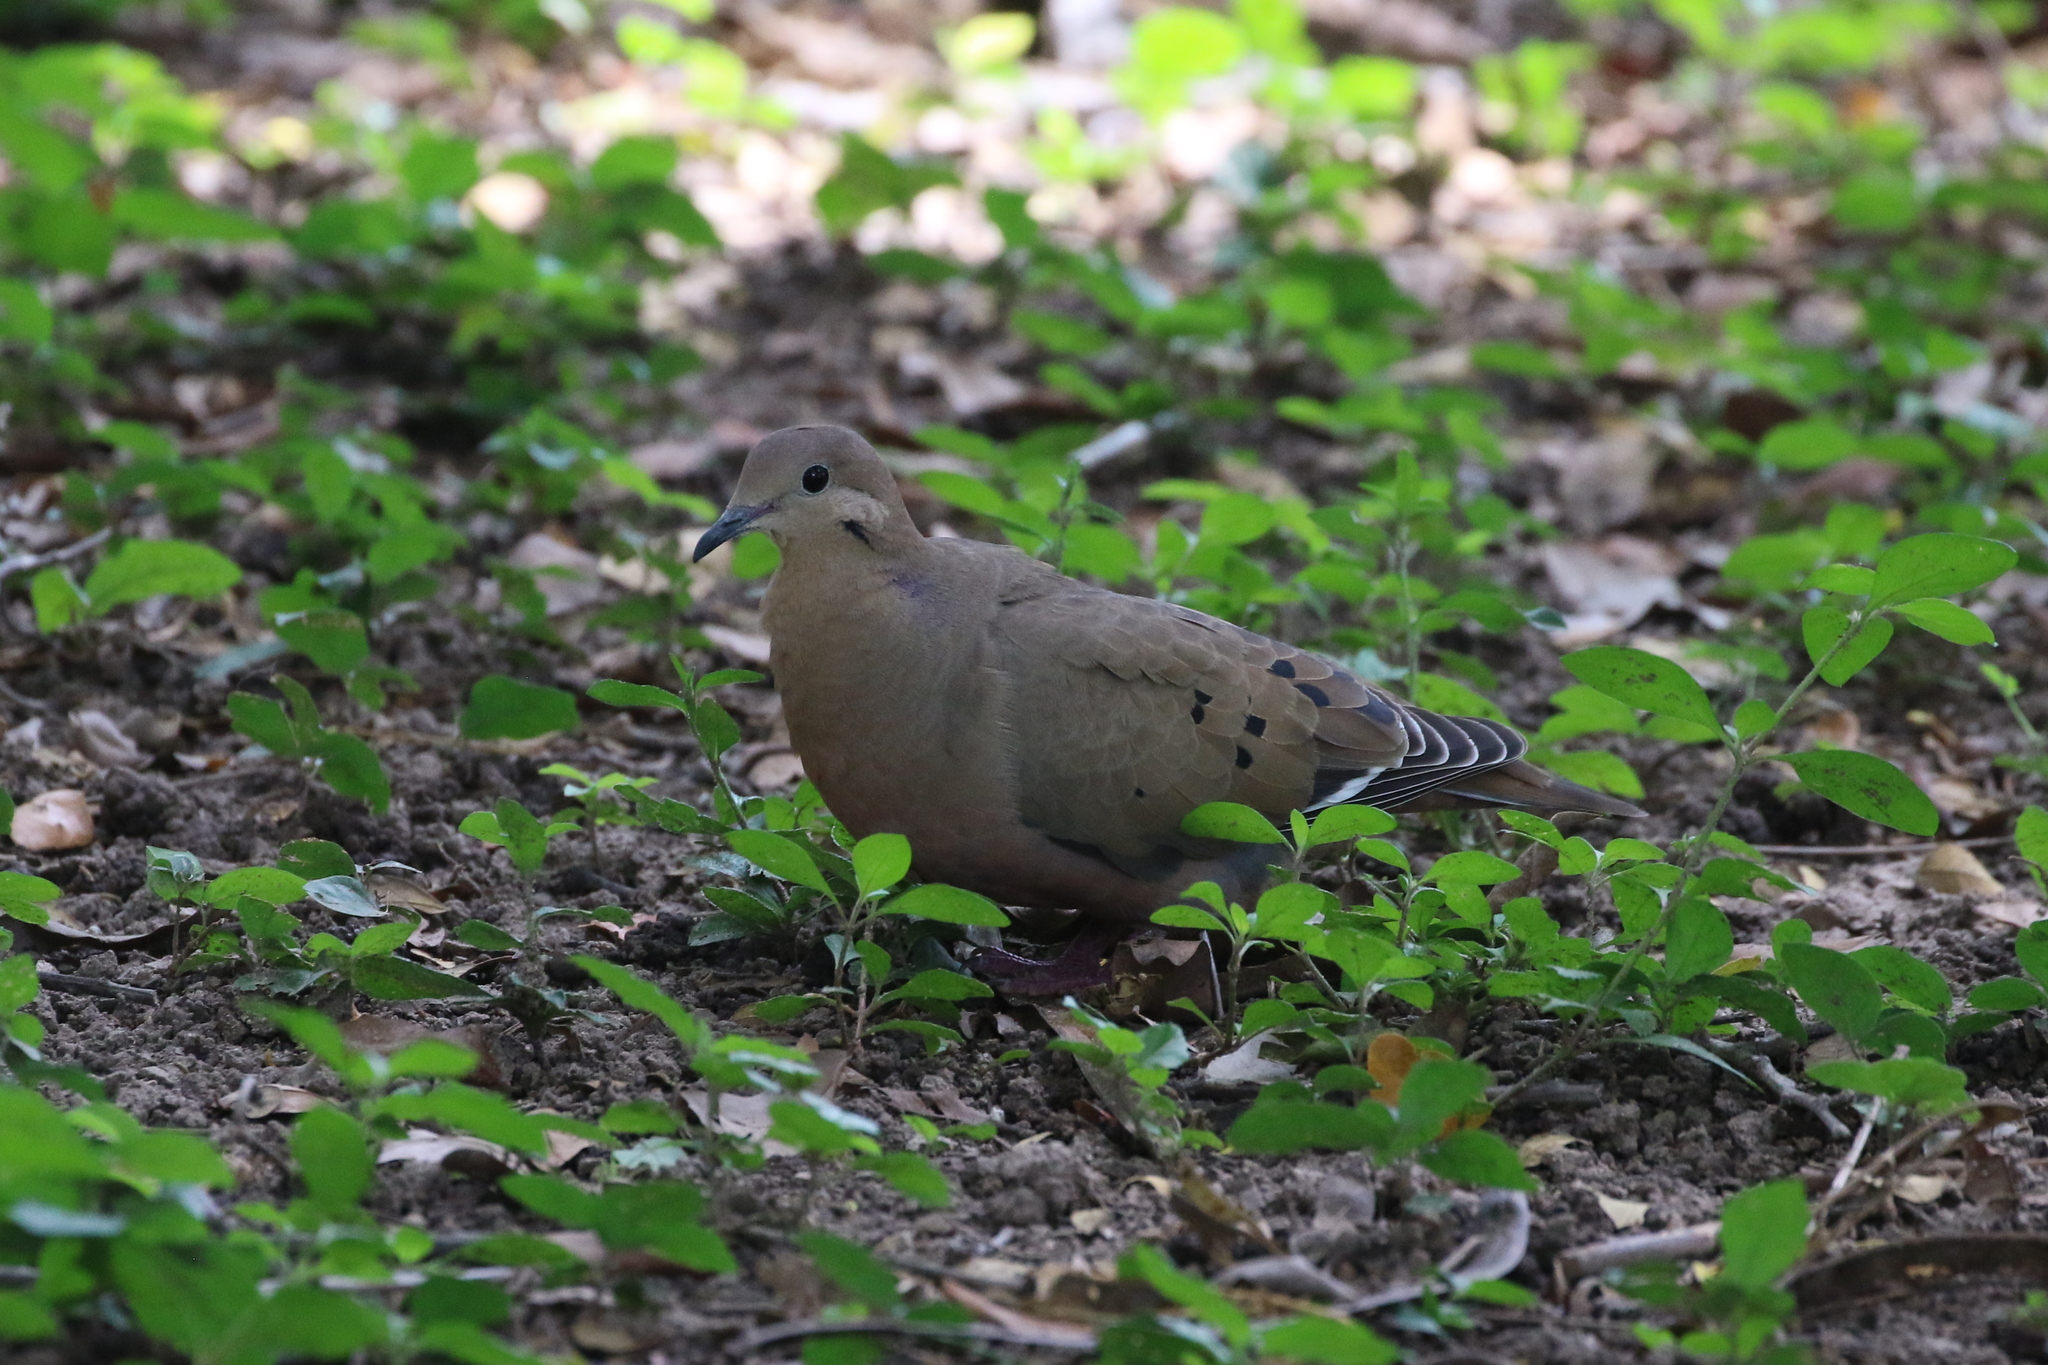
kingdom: Animalia
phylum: Chordata
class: Aves
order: Columbiformes
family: Columbidae
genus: Zenaida
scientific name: Zenaida aurita
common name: Zenaida dove
